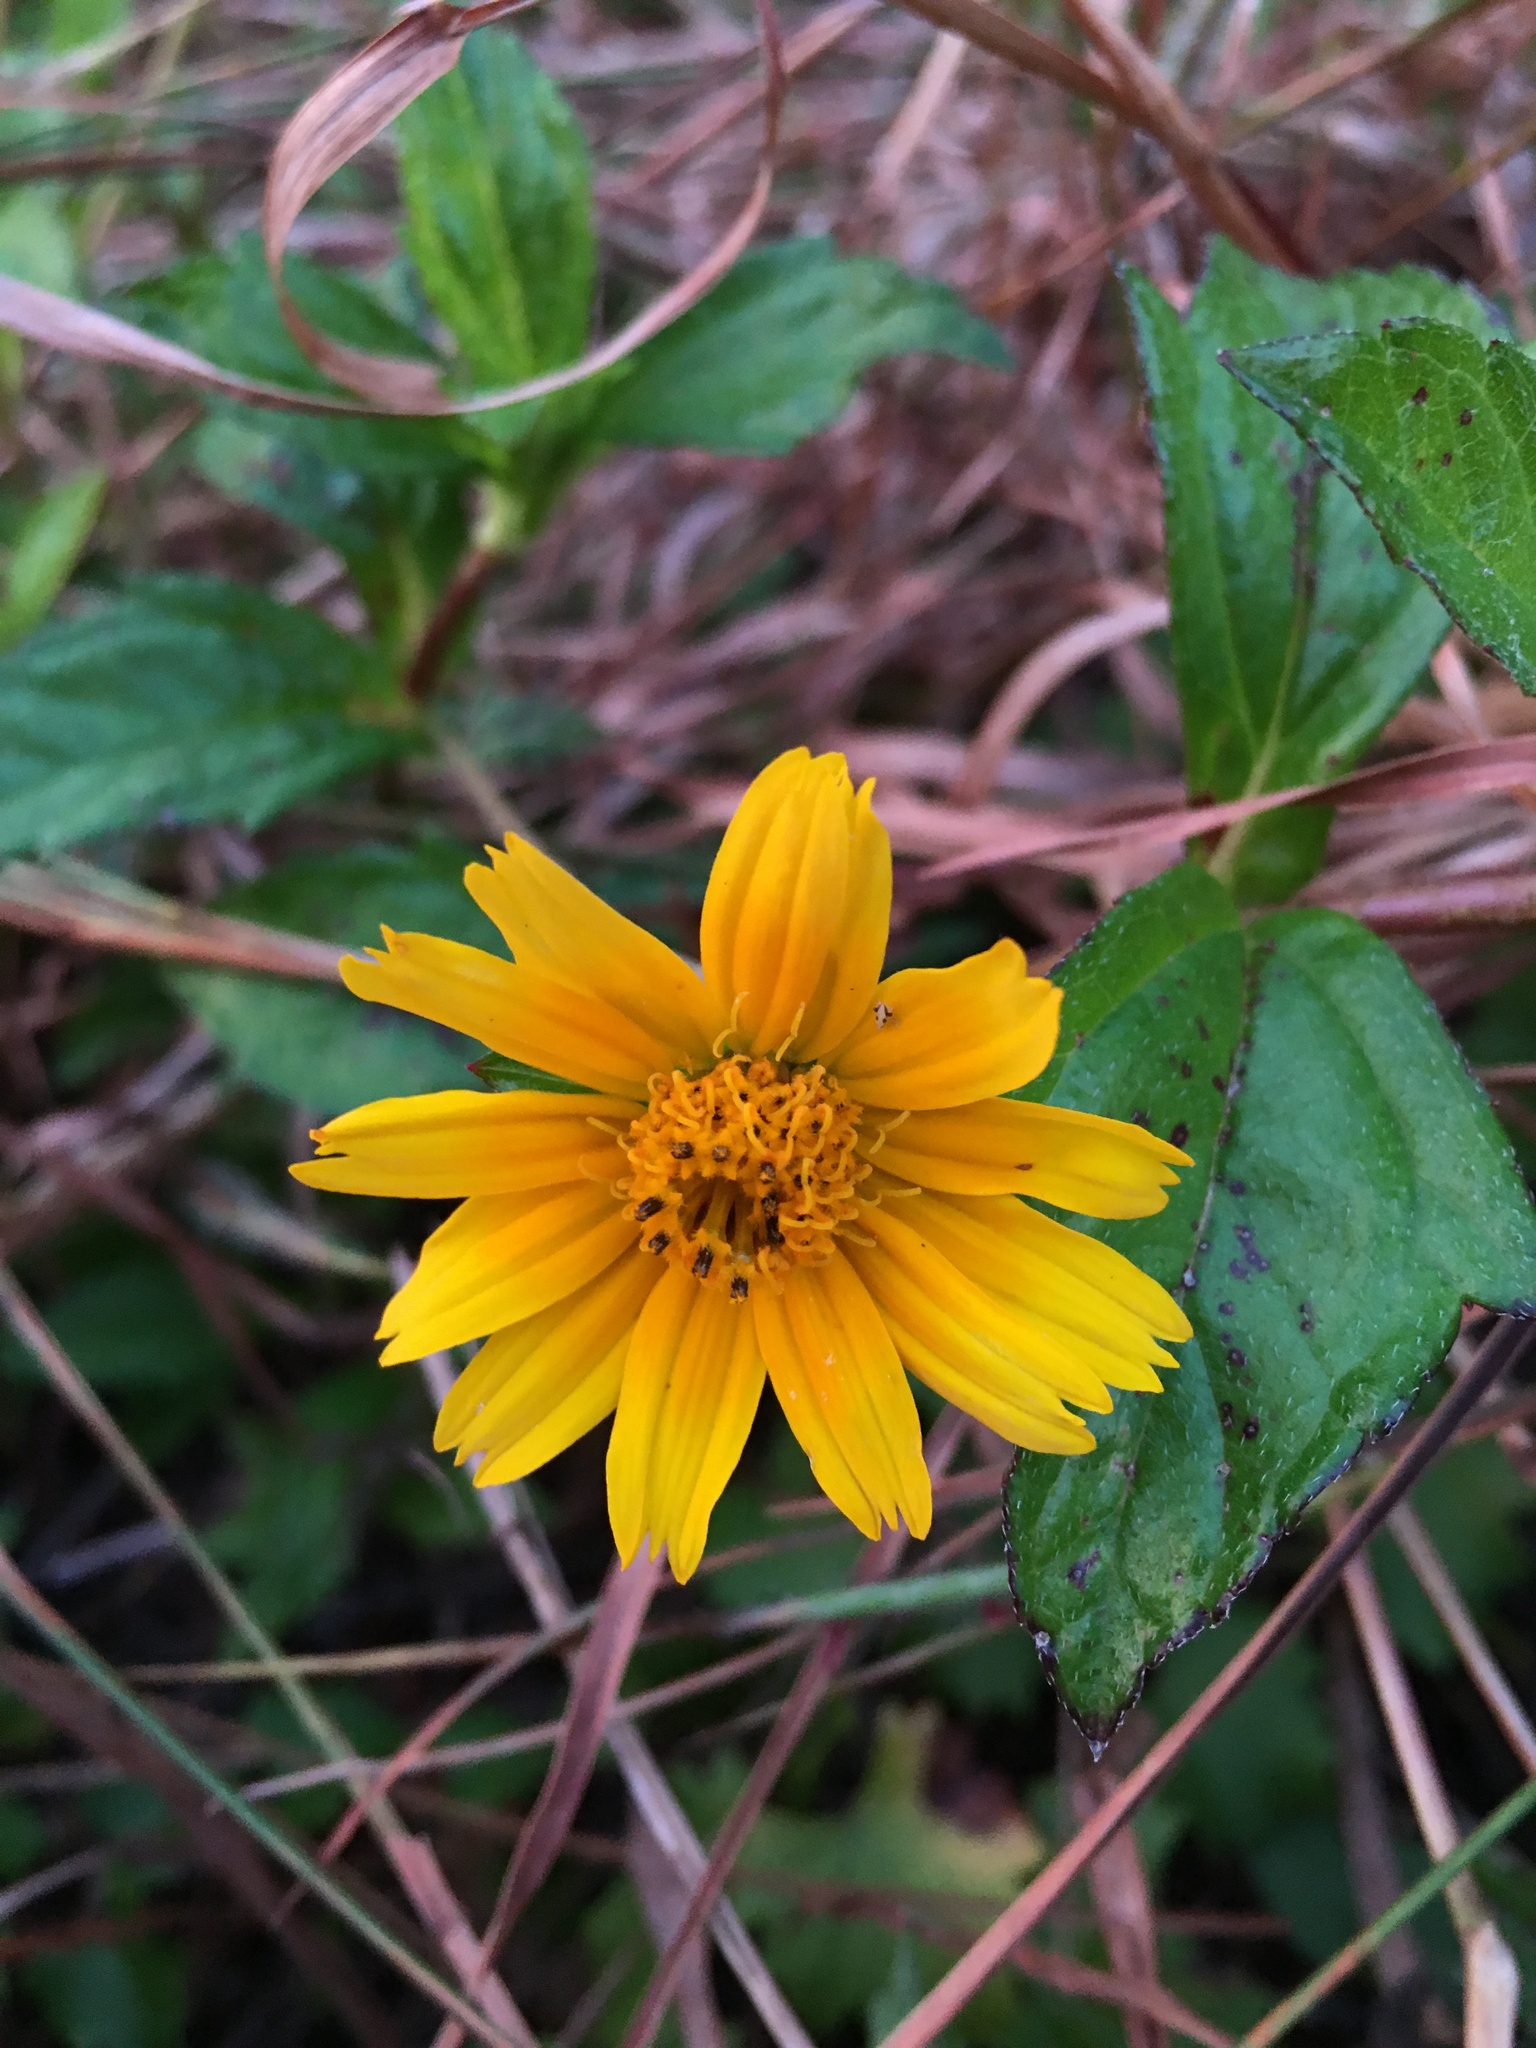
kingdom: Plantae
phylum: Tracheophyta
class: Magnoliopsida
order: Asterales
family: Asteraceae
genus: Sphagneticola
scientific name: Sphagneticola trilobata
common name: Bay biscayne creeping-oxeye
